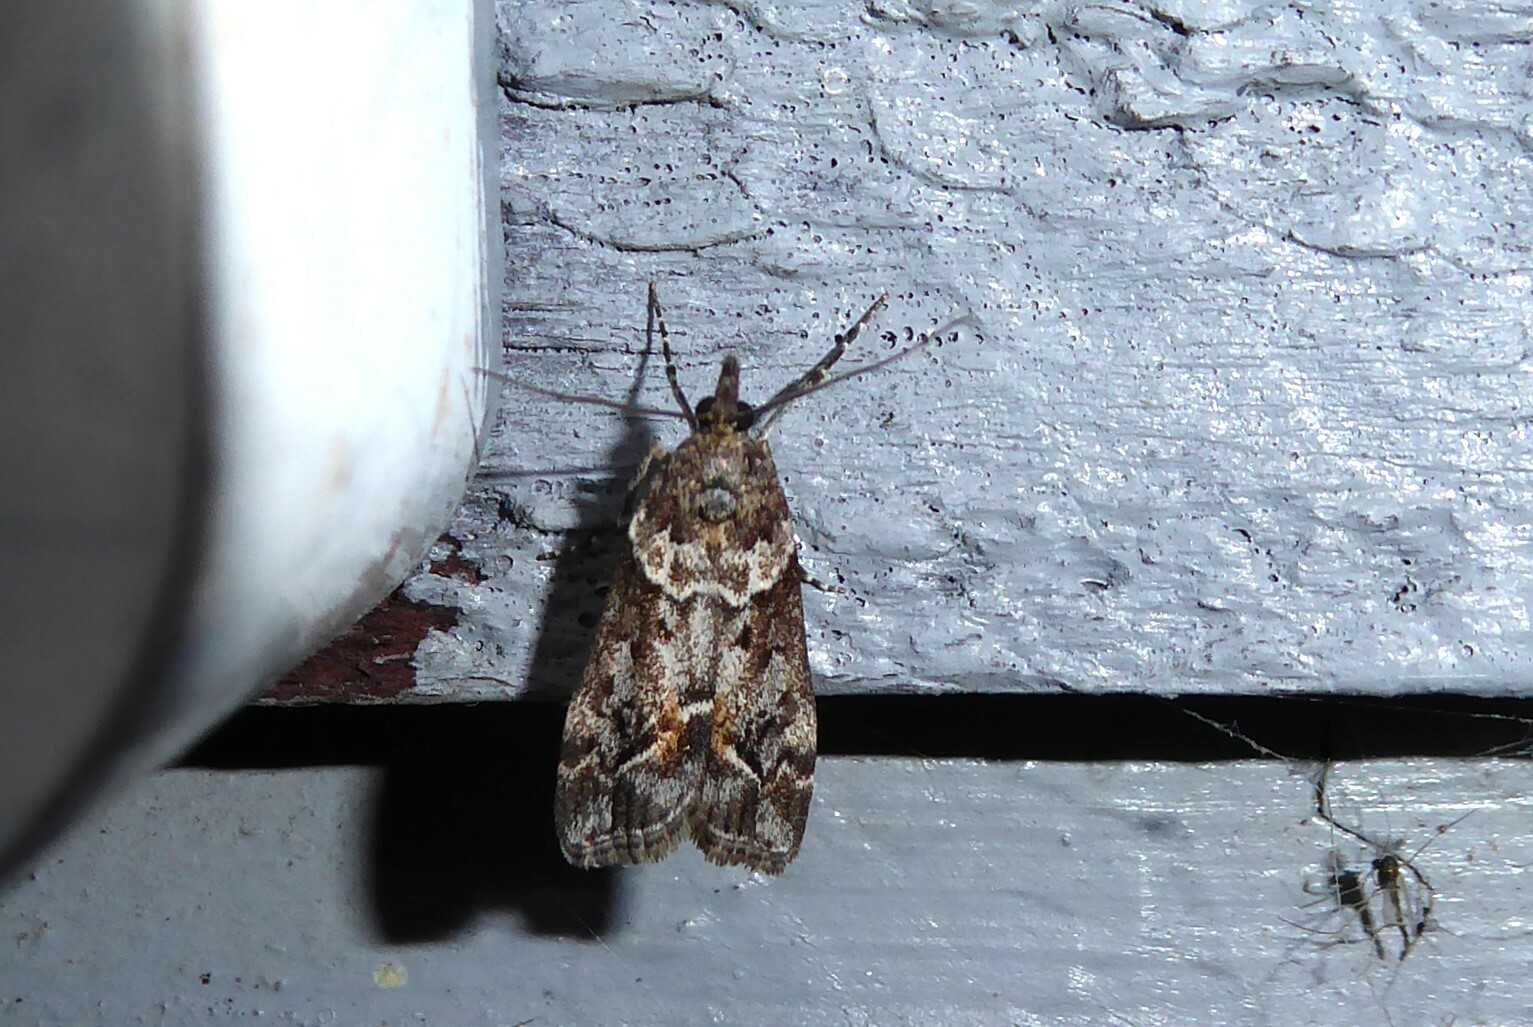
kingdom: Animalia
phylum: Arthropoda
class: Insecta
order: Lepidoptera
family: Crambidae
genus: Eudonia
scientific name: Eudonia submarginalis
